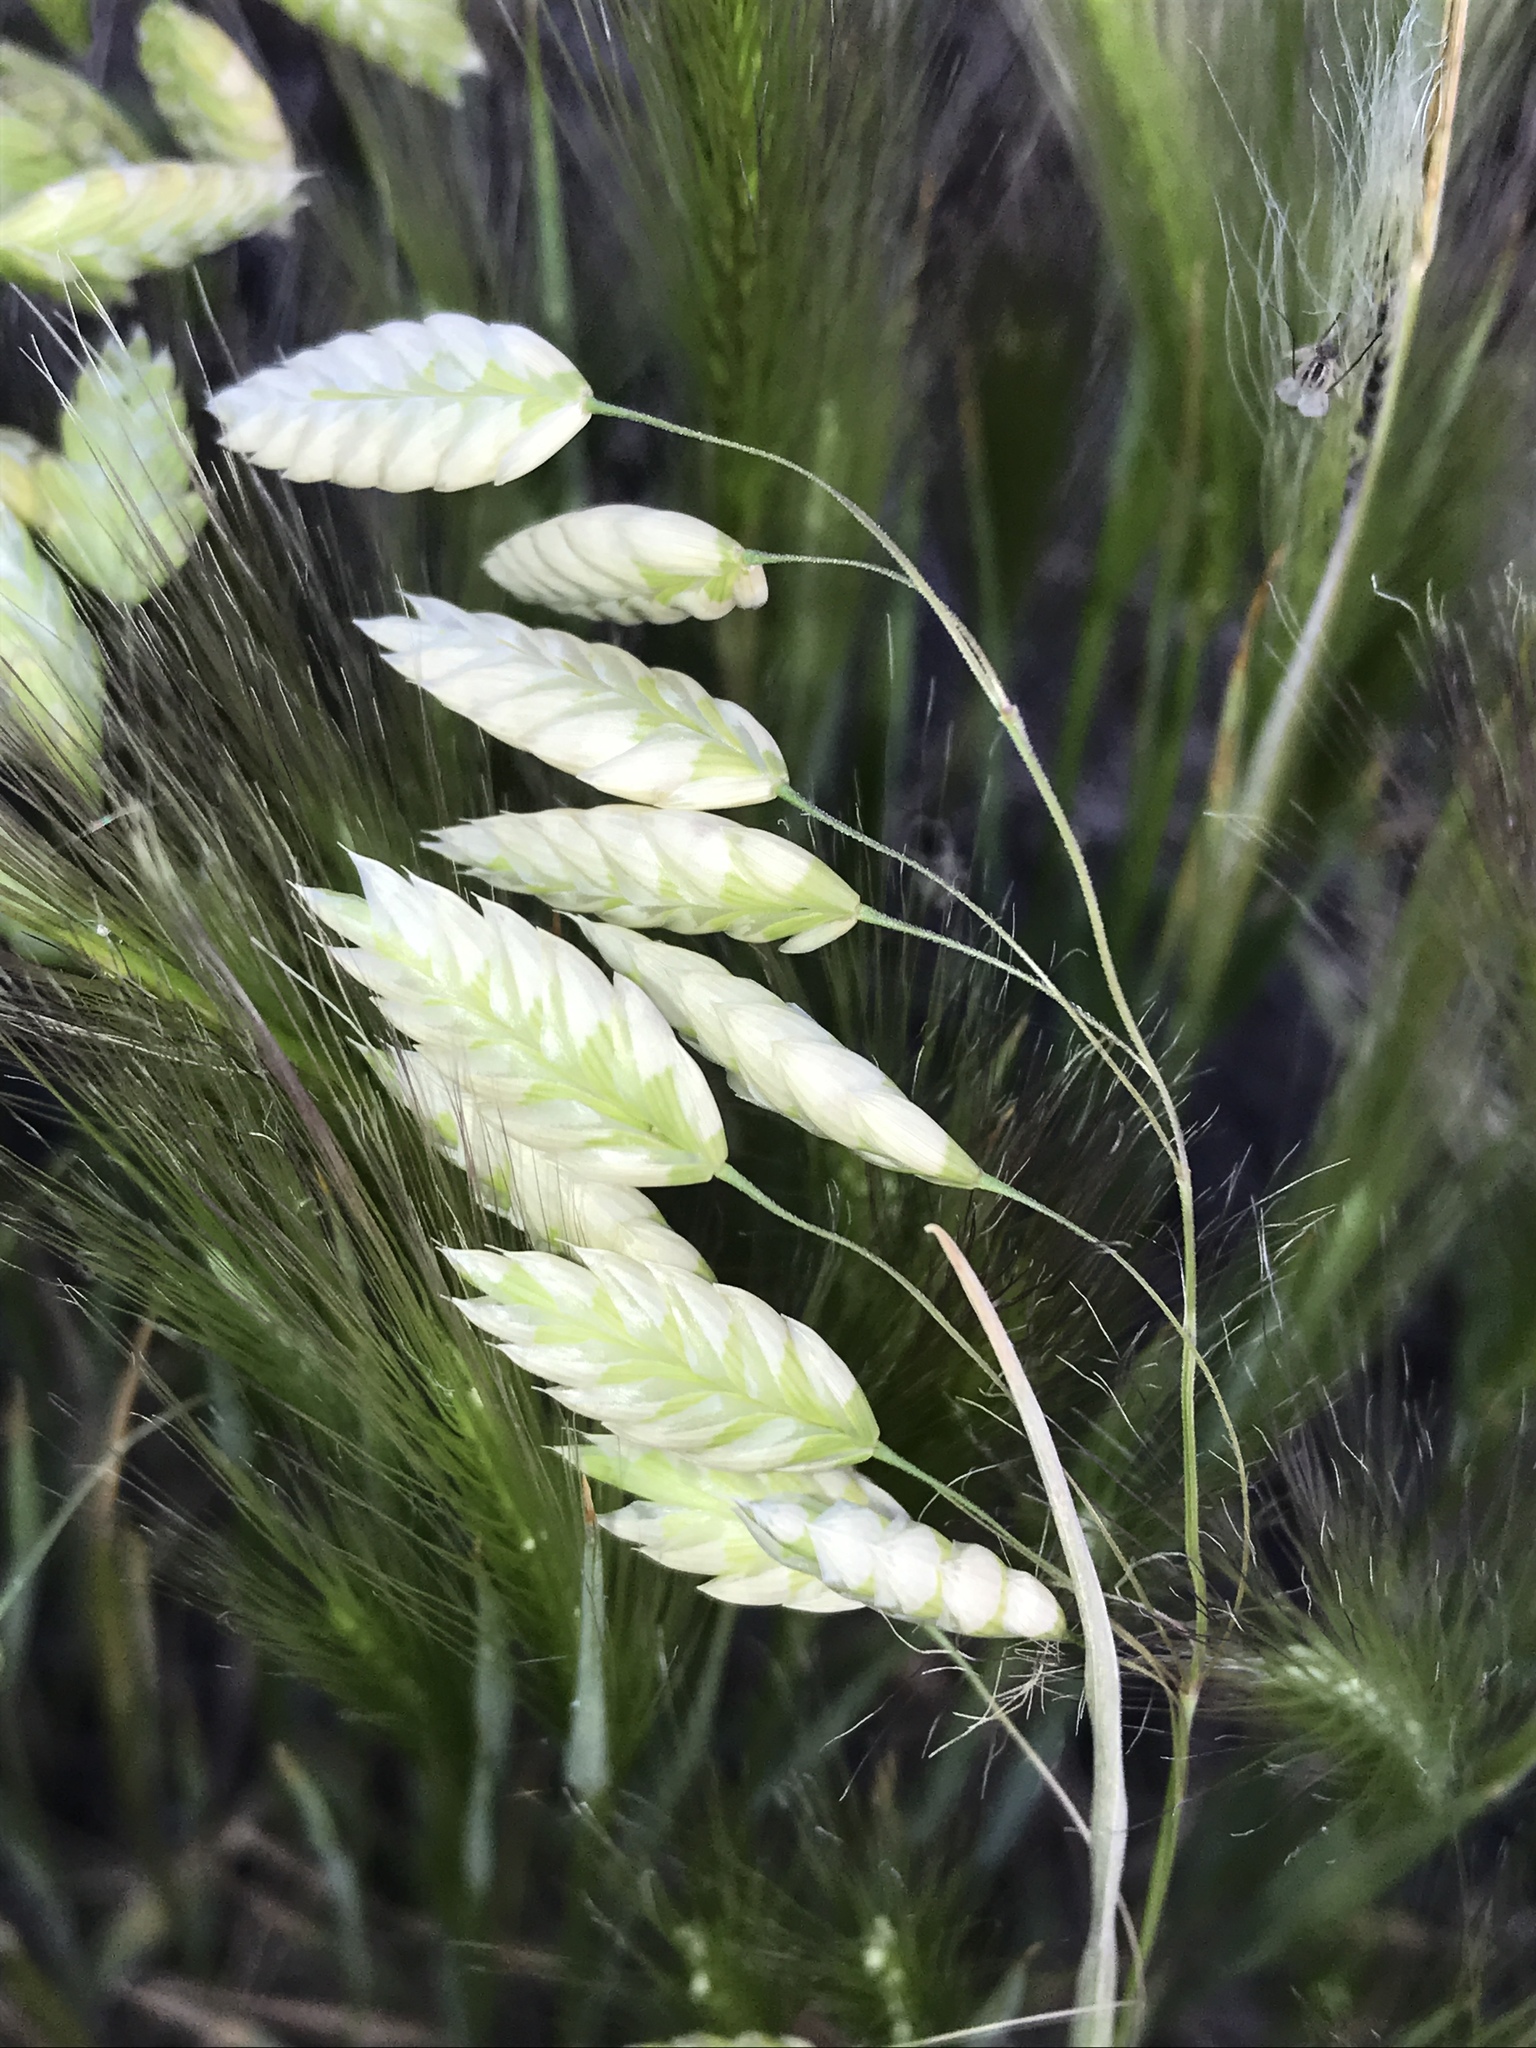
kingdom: Plantae
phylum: Tracheophyta
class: Liliopsida
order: Poales
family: Poaceae
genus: Bromus
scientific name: Bromus briziformis
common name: Rattlesnake brome
